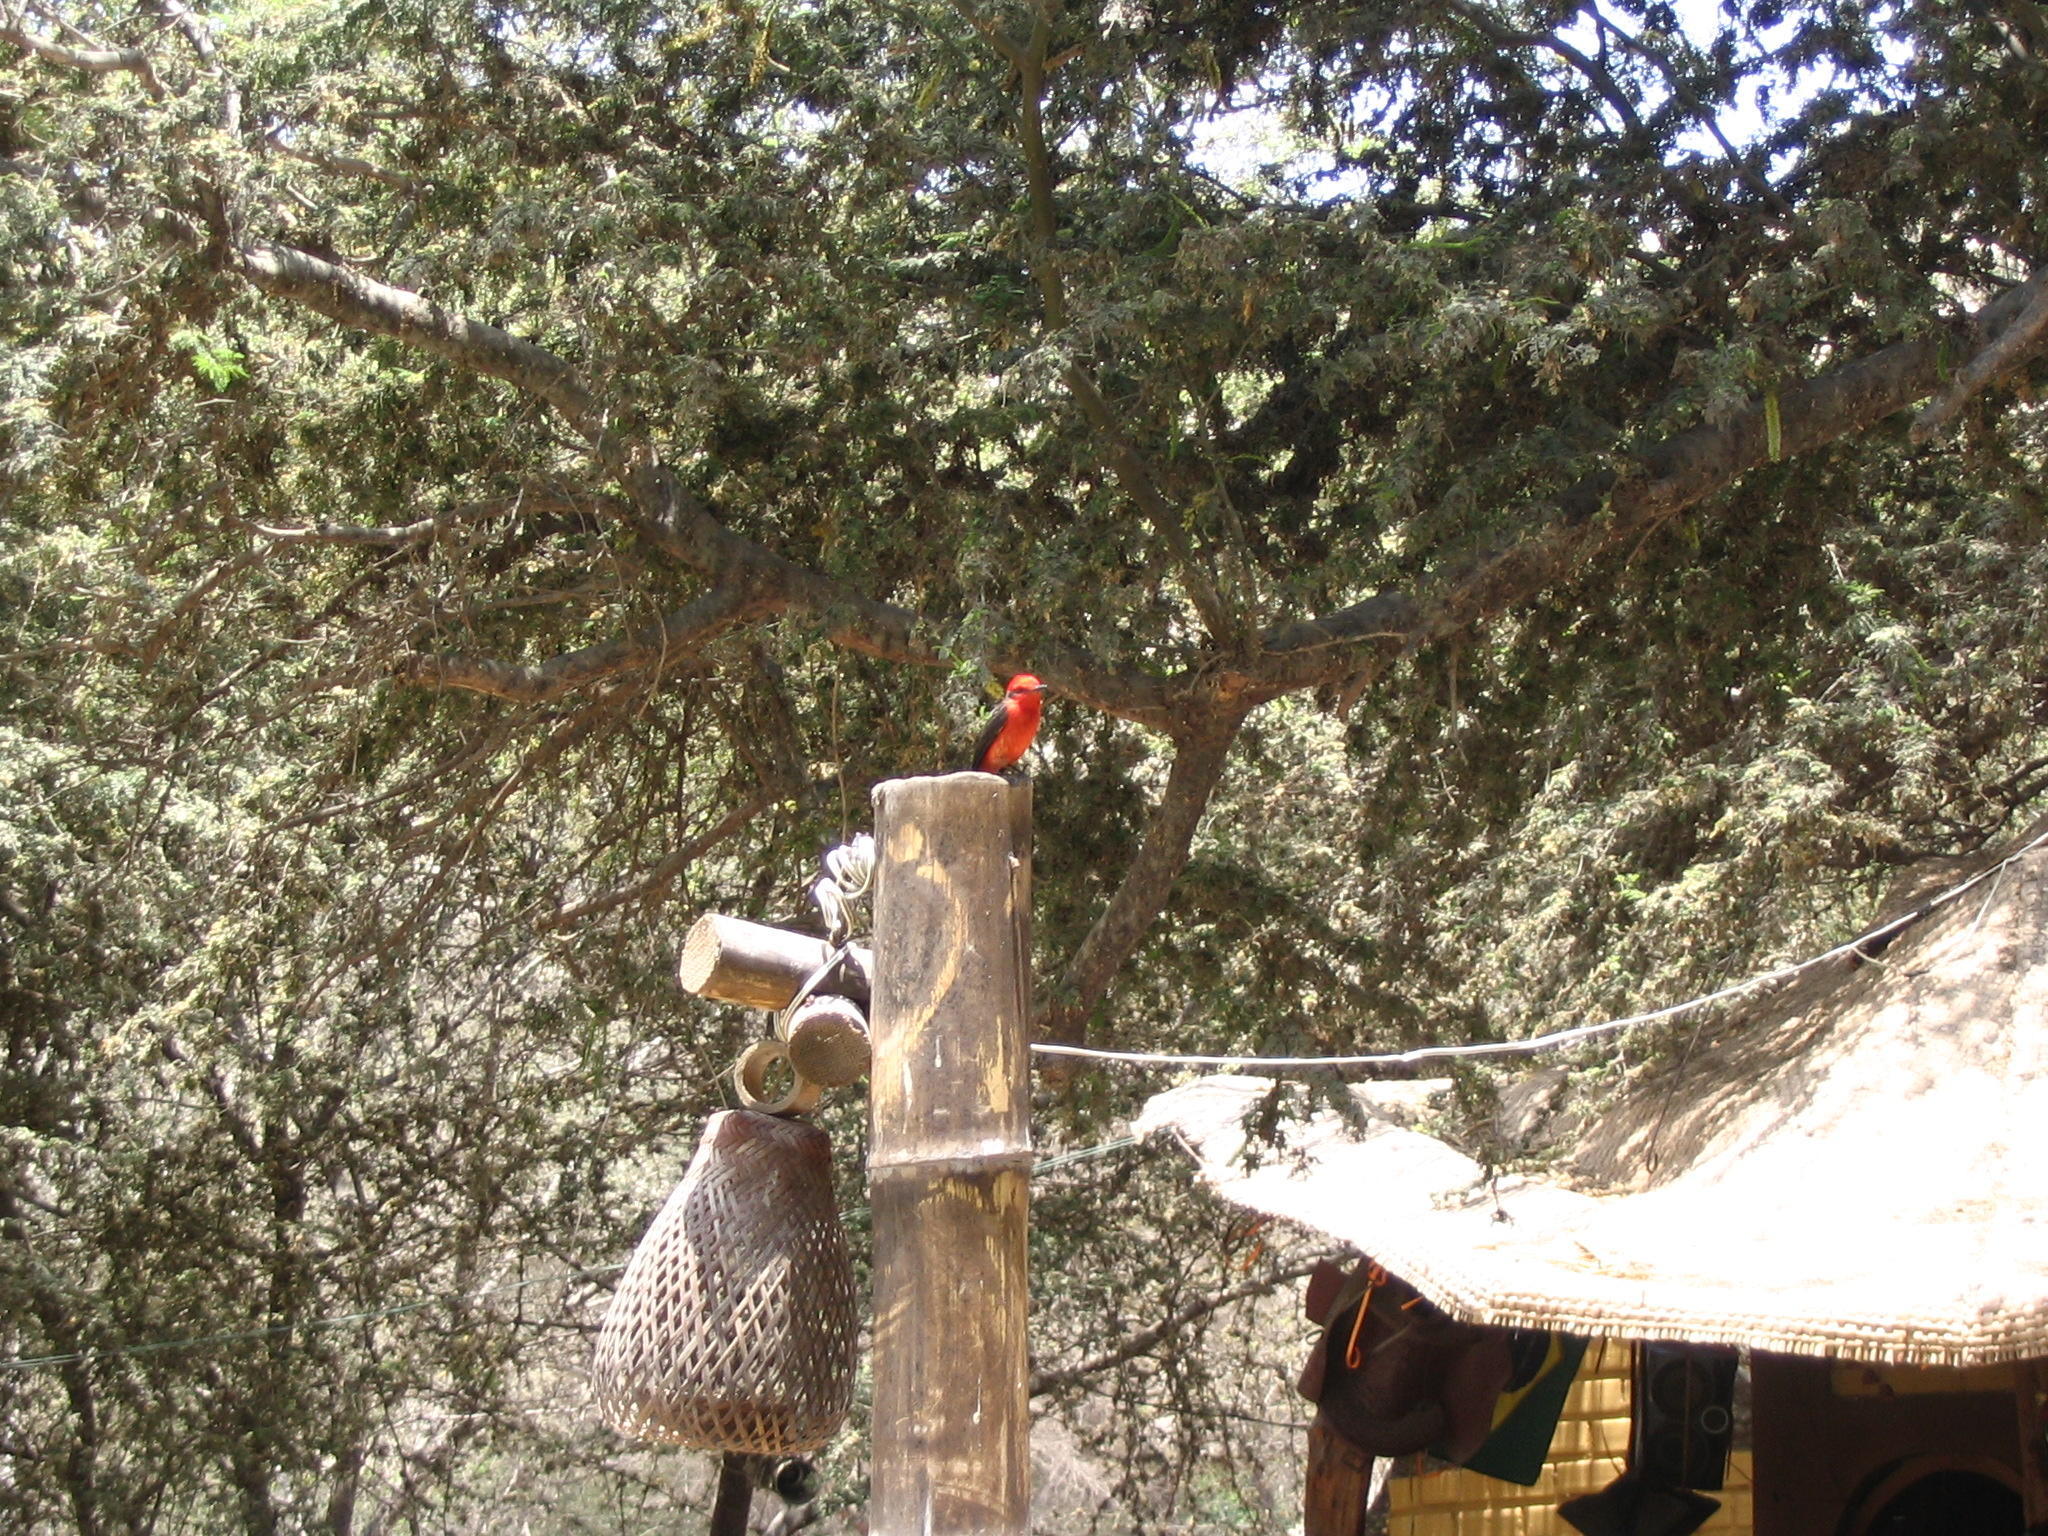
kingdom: Animalia
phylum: Chordata
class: Aves
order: Passeriformes
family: Tyrannidae
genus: Pyrocephalus
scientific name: Pyrocephalus rubinus
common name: Vermilion flycatcher
